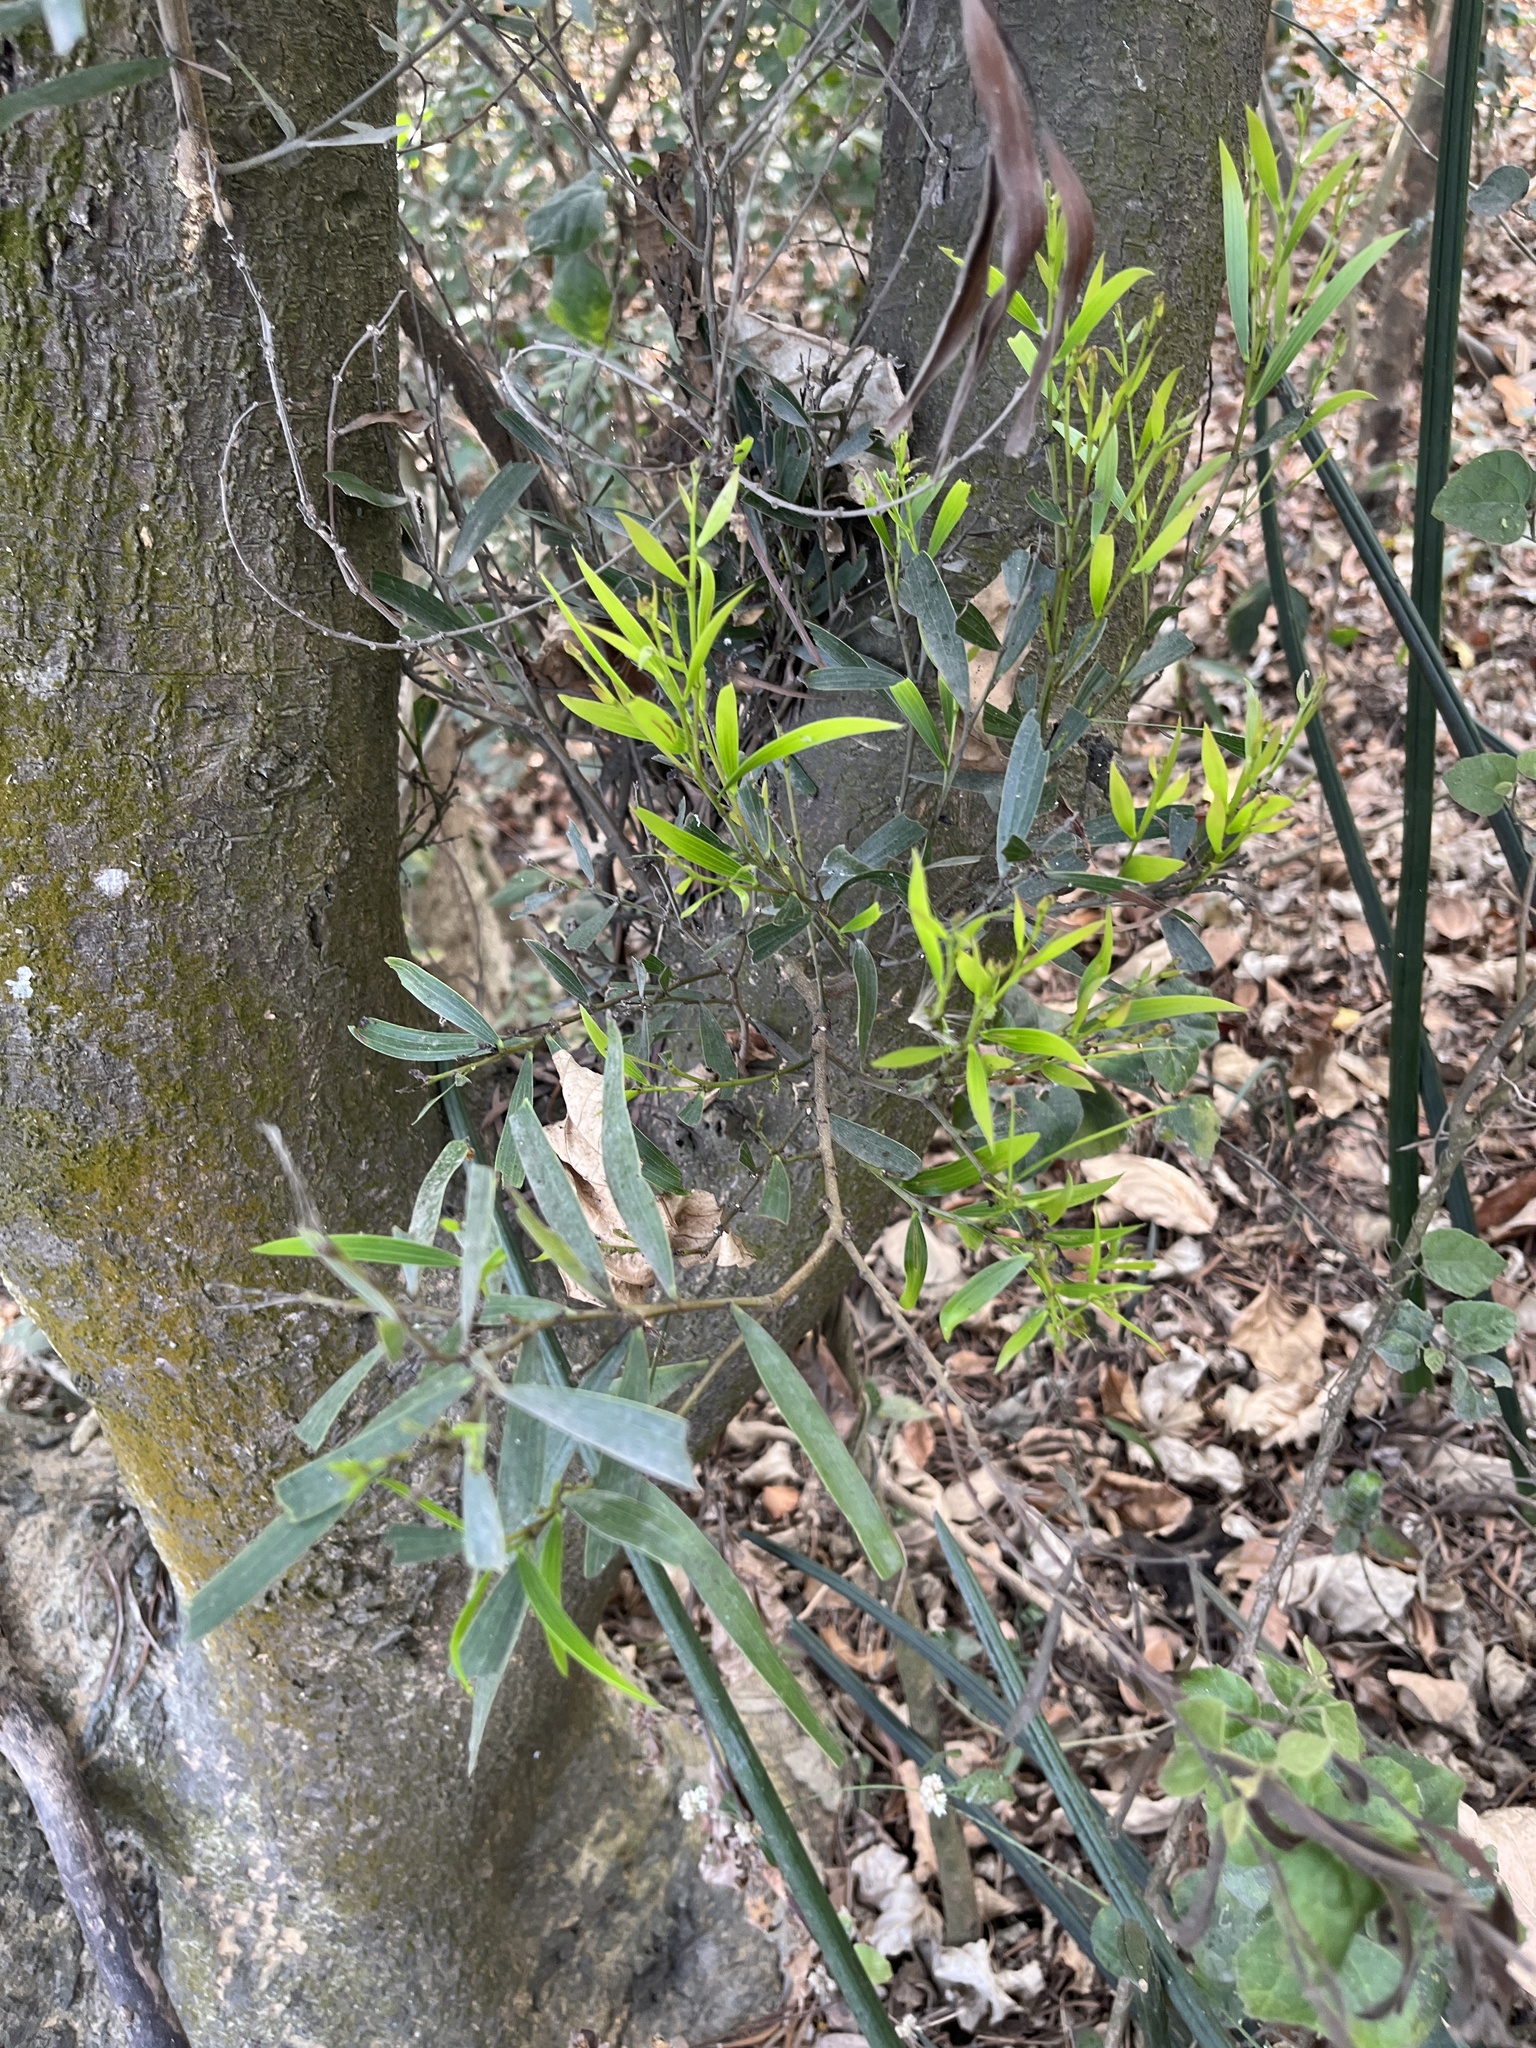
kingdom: Plantae
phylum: Tracheophyta
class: Magnoliopsida
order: Fabales
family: Fabaceae
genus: Acacia
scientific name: Acacia confusa
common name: Formosan koa
